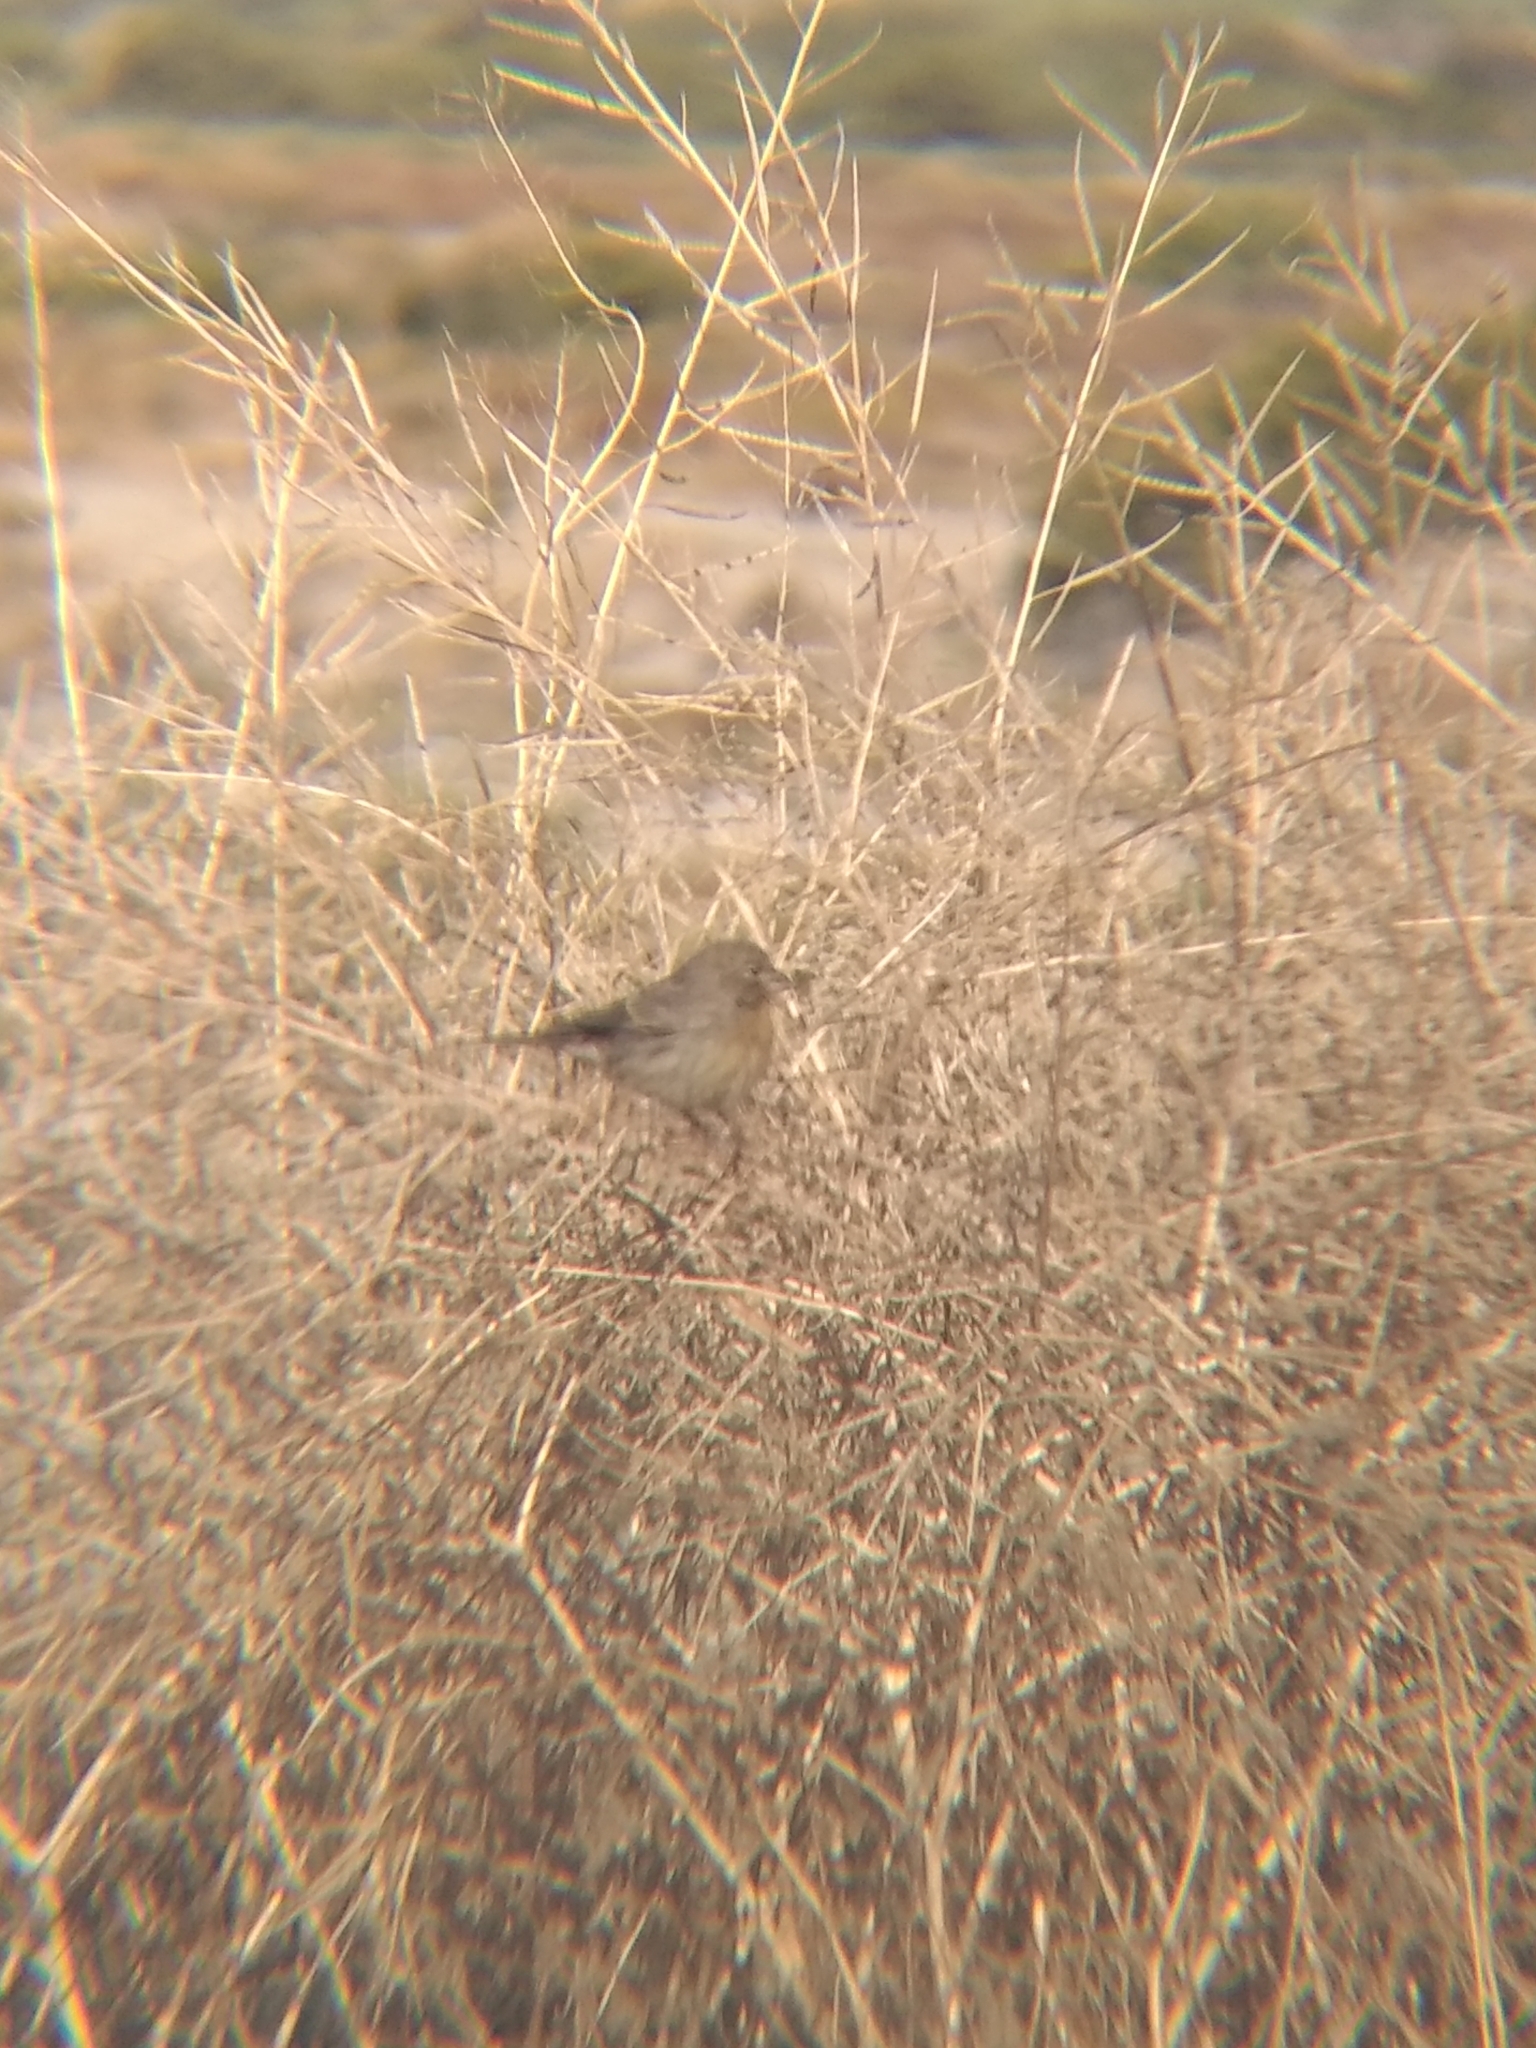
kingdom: Animalia
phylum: Chordata
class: Aves
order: Passeriformes
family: Fringillidae
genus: Haemorhous
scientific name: Haemorhous mexicanus
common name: House finch
